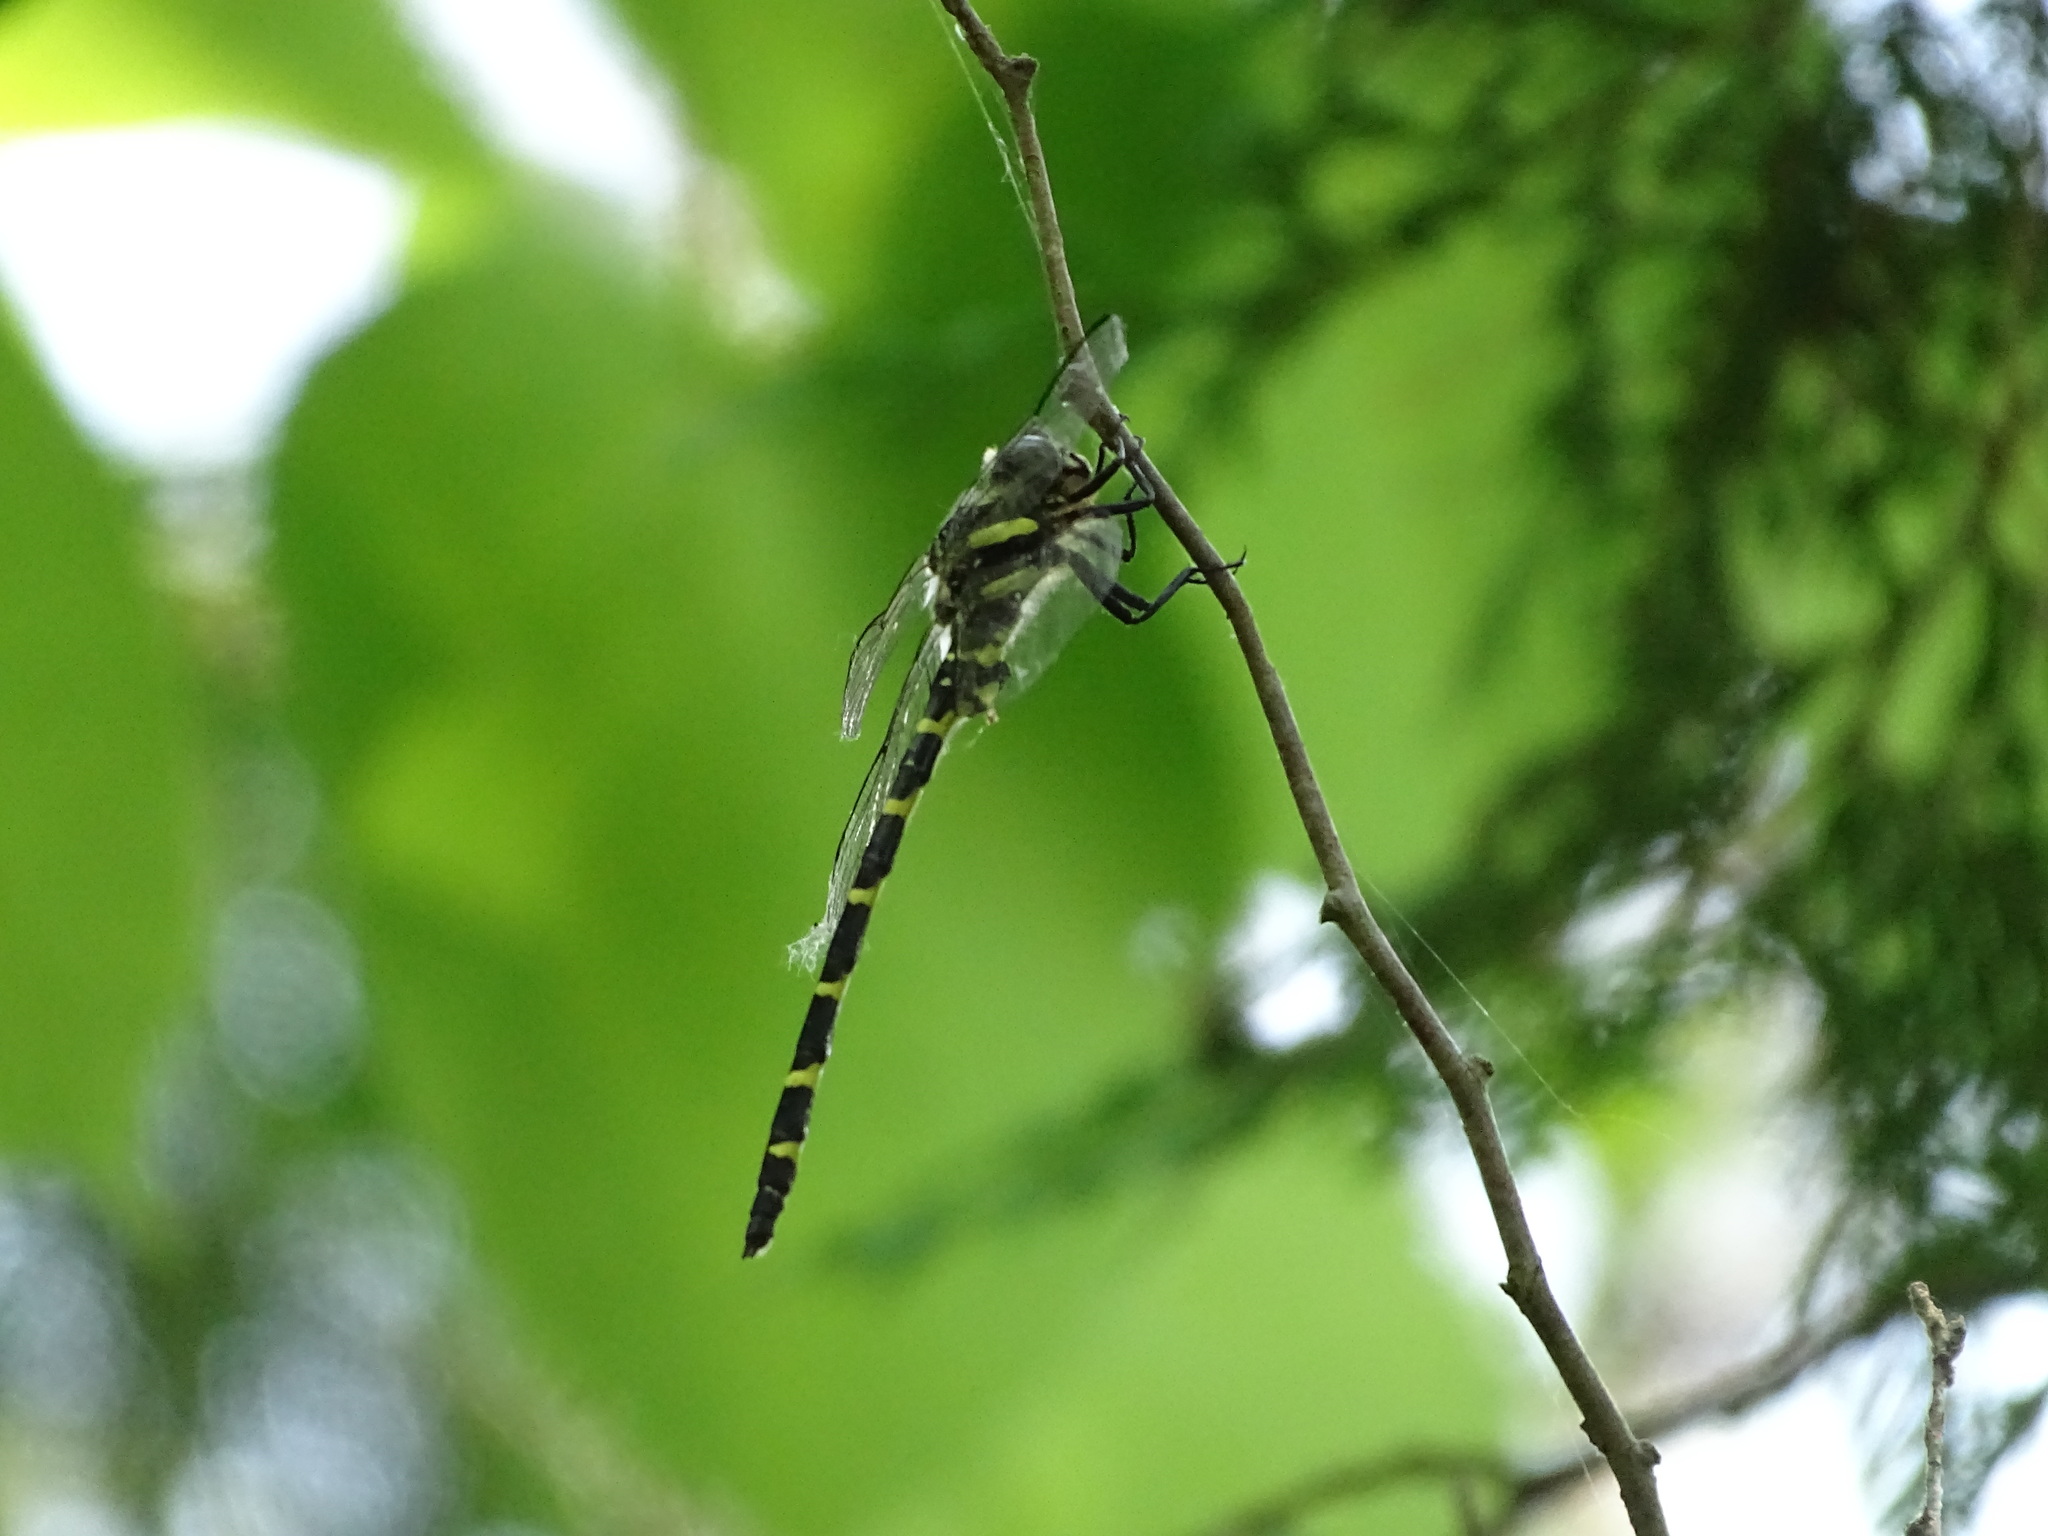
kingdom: Animalia
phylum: Arthropoda
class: Insecta
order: Odonata
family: Cordulegastridae
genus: Cordulegaster
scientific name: Cordulegaster erronea
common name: Tiger spiketail
